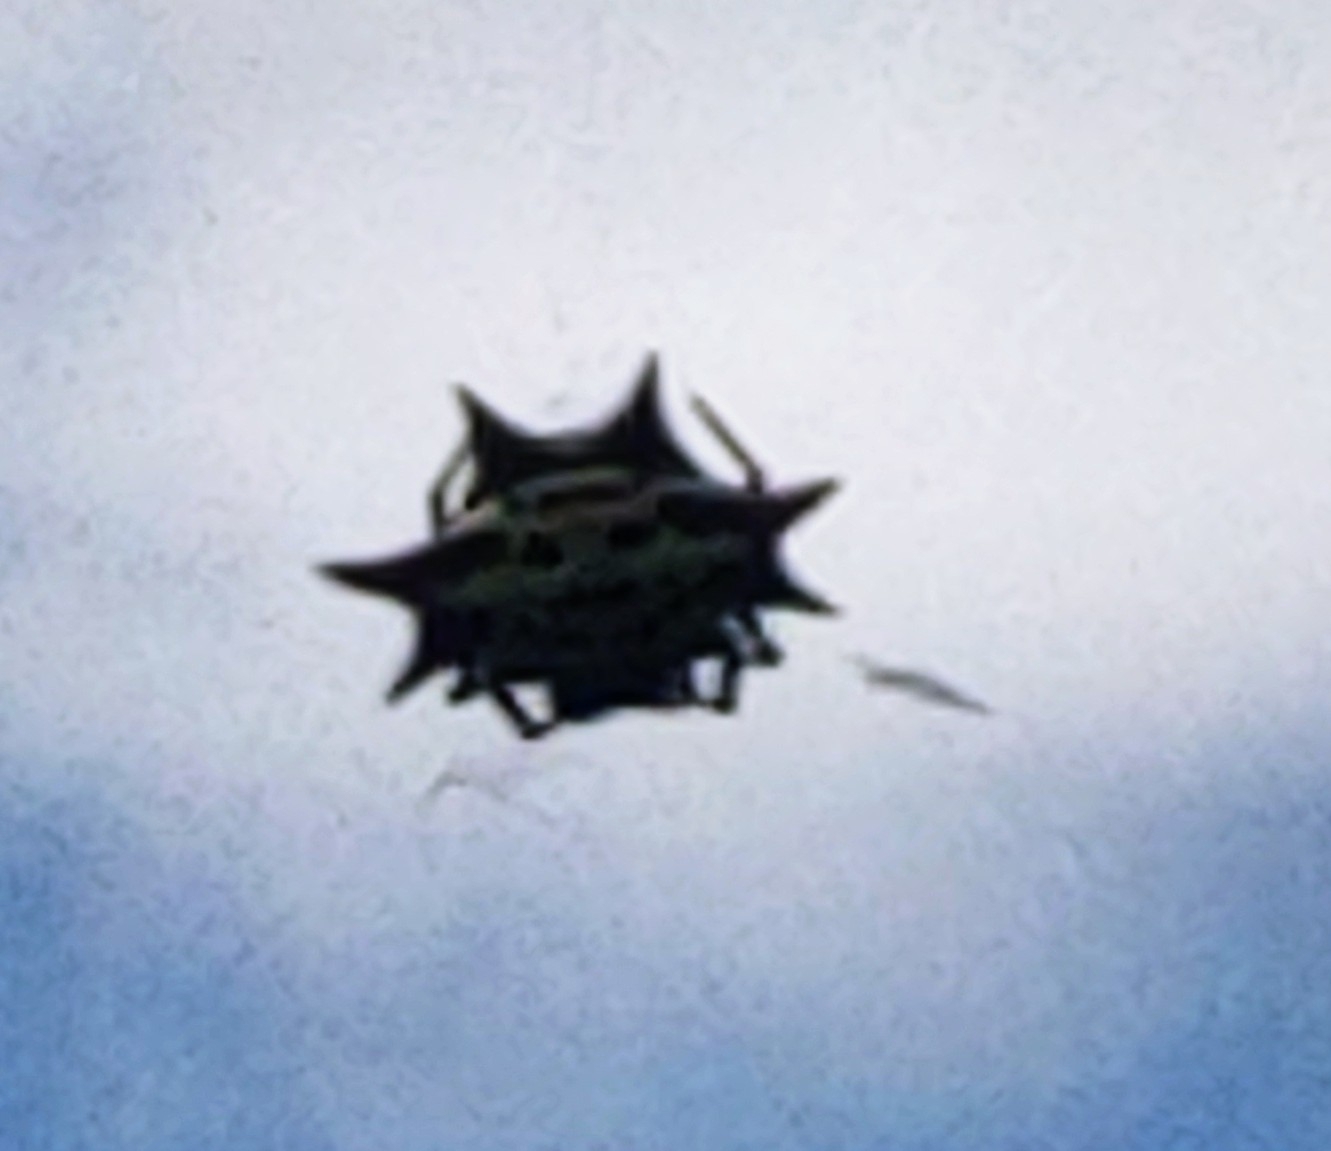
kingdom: Animalia
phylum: Arthropoda
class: Arachnida
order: Araneae
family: Araneidae
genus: Gasteracantha
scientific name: Gasteracantha cancriformis
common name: Orb weavers
